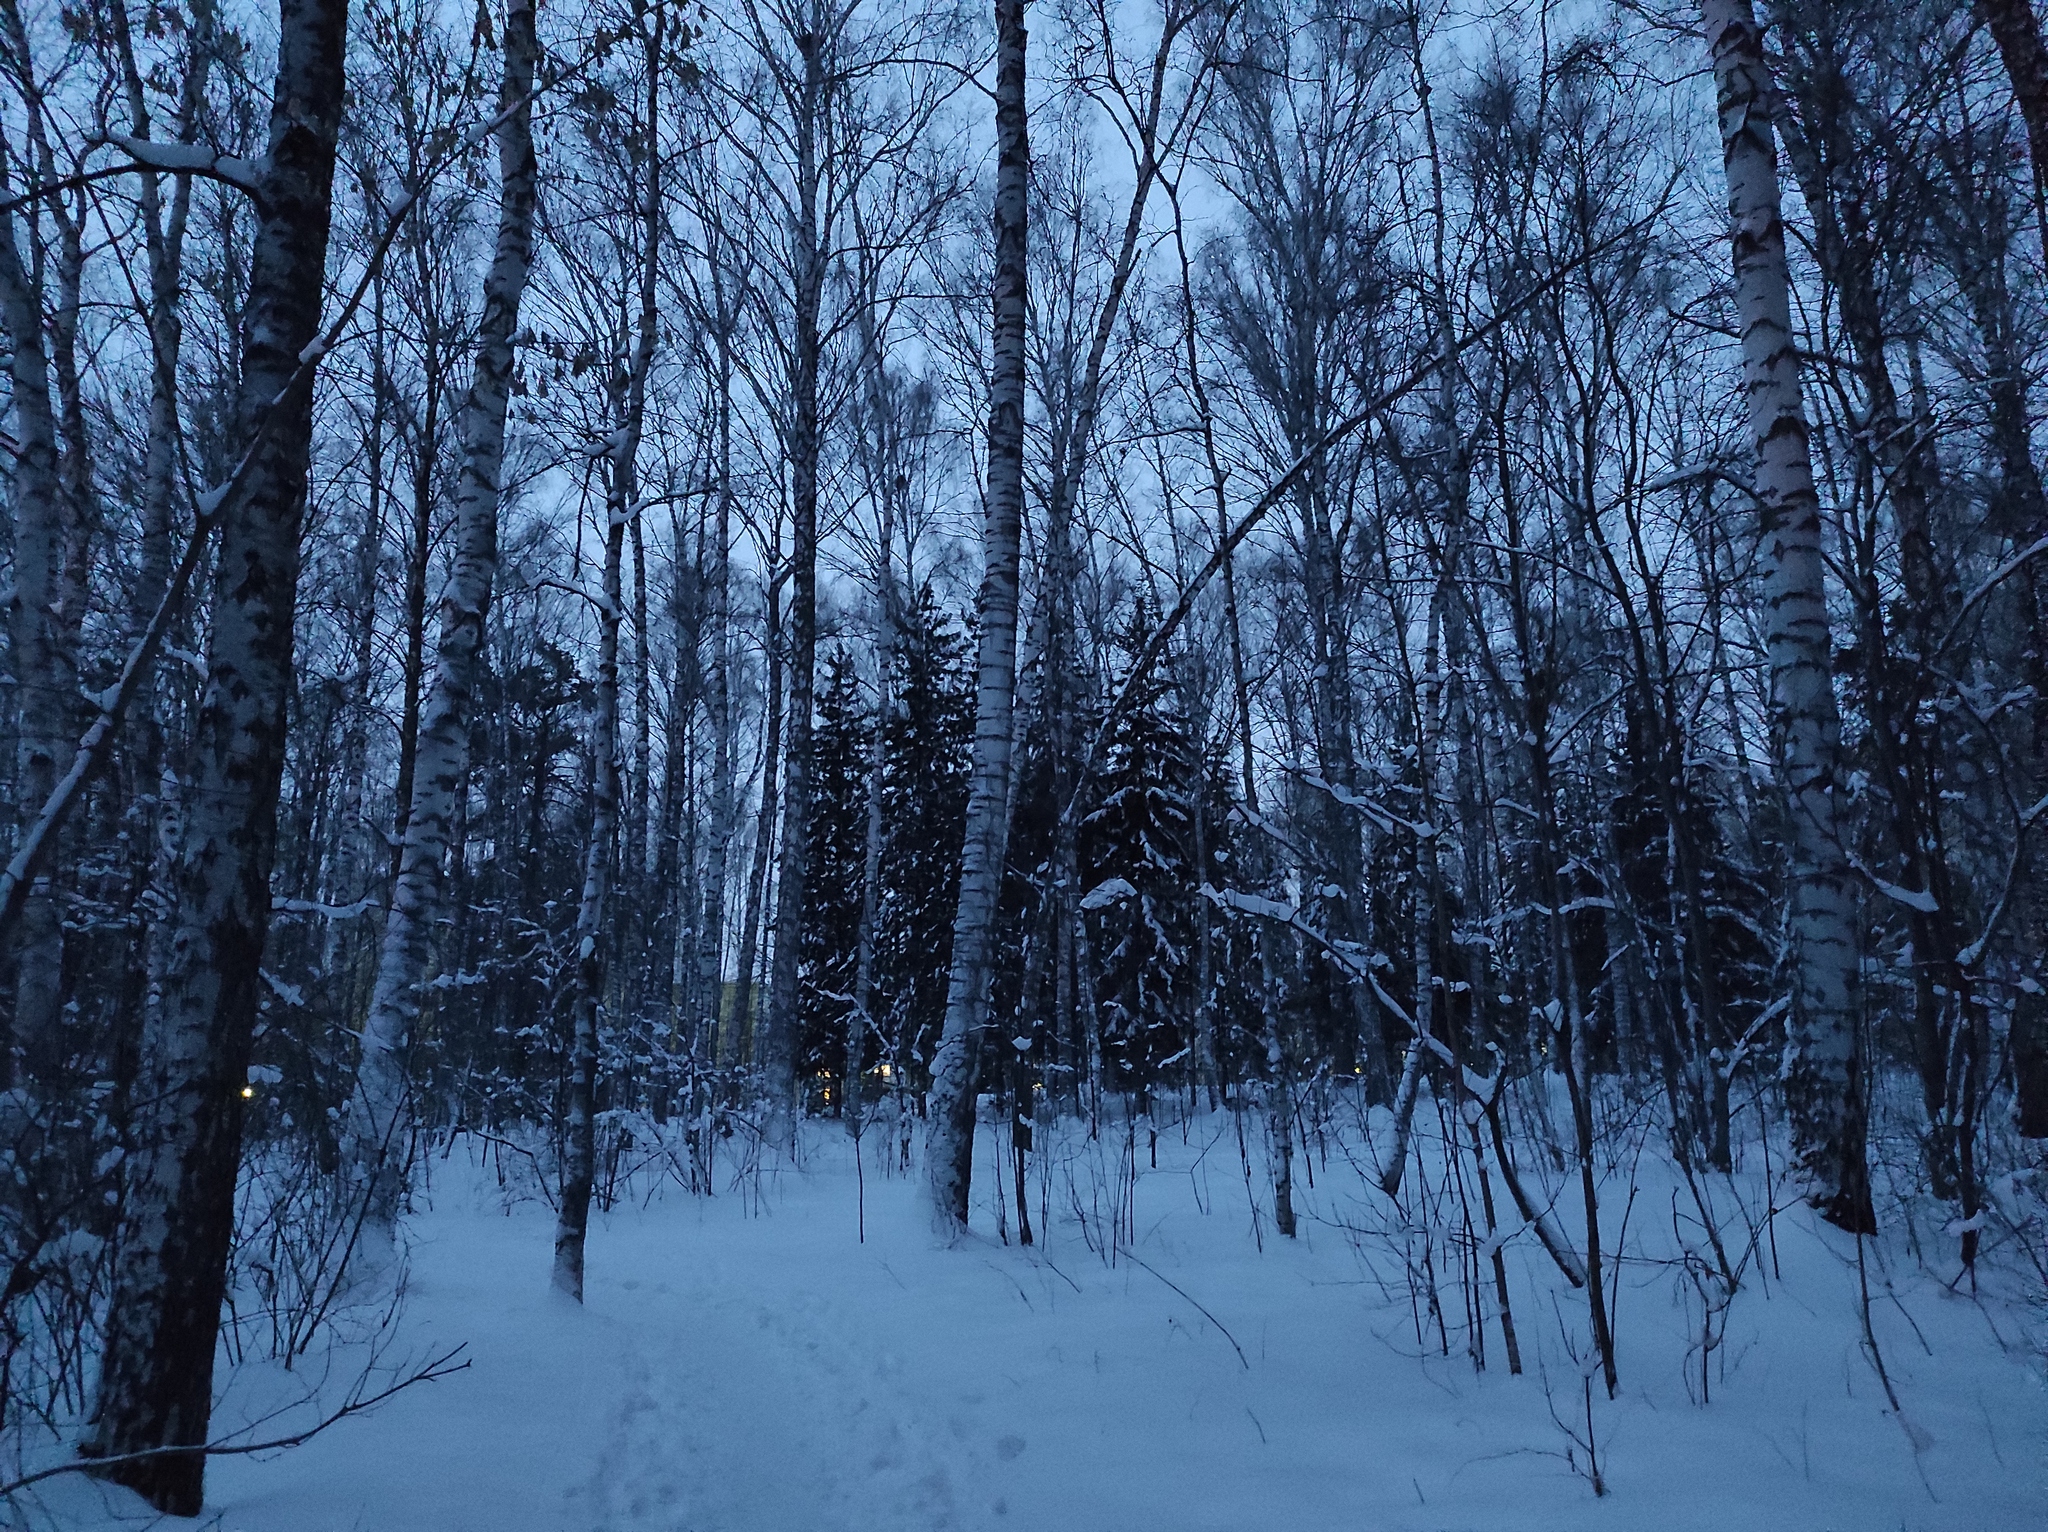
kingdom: Plantae
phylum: Tracheophyta
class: Magnoliopsida
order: Fagales
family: Betulaceae
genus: Betula
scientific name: Betula pendula
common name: Silver birch
